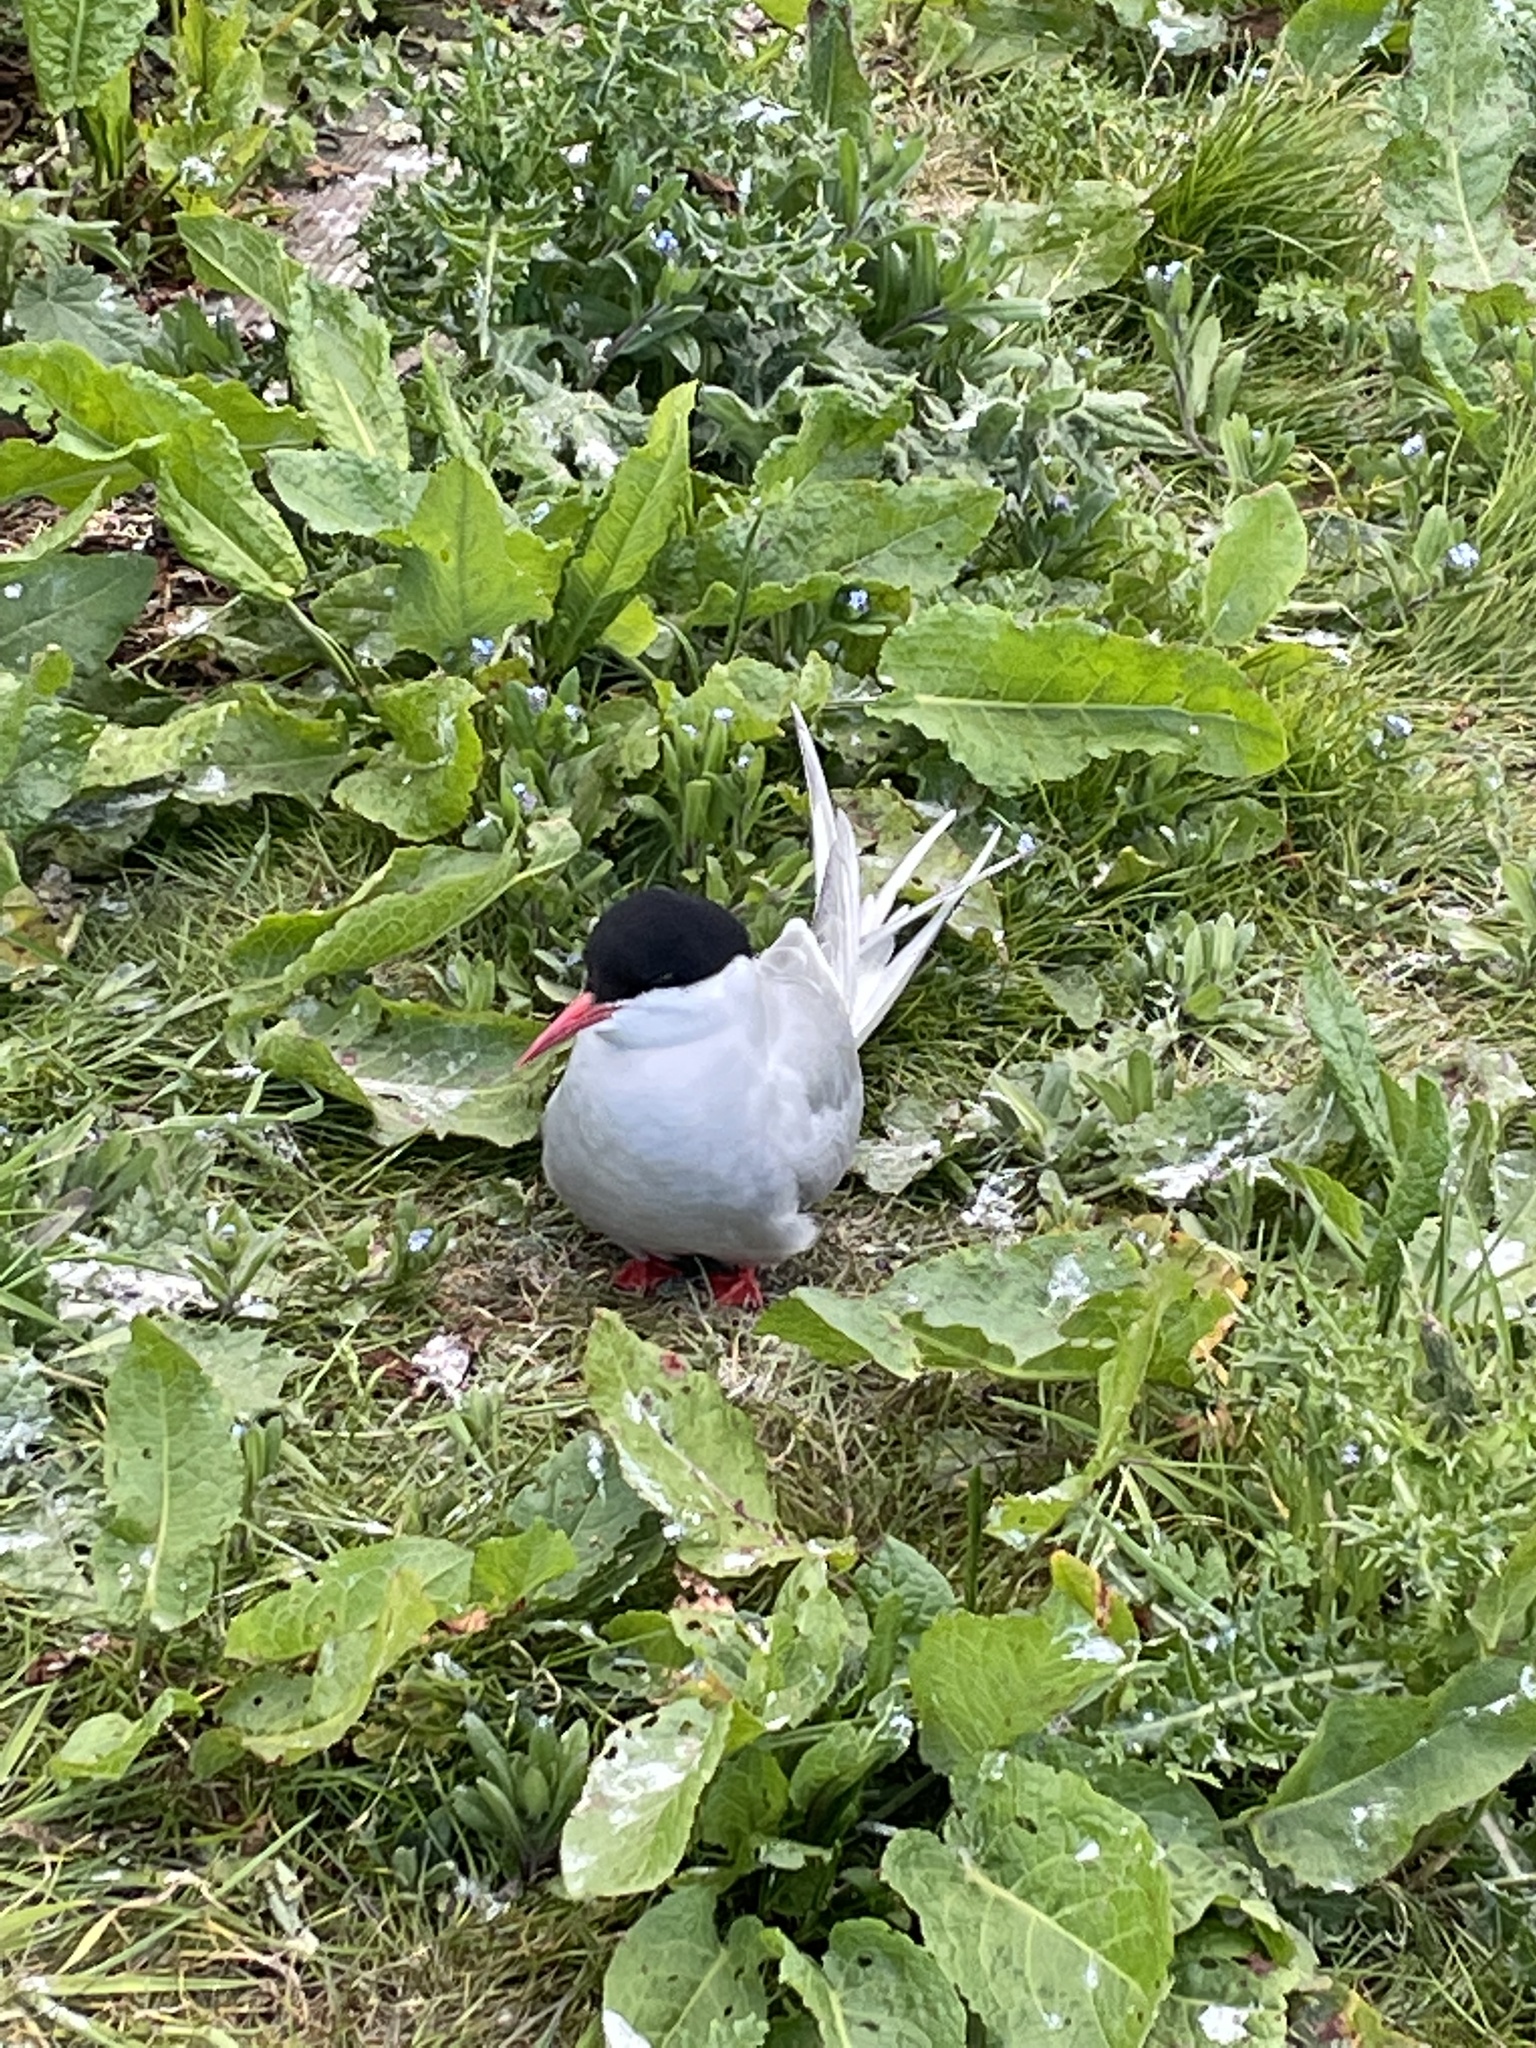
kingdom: Animalia
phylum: Chordata
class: Aves
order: Charadriiformes
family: Laridae
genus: Sterna
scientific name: Sterna paradisaea
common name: Arctic tern
